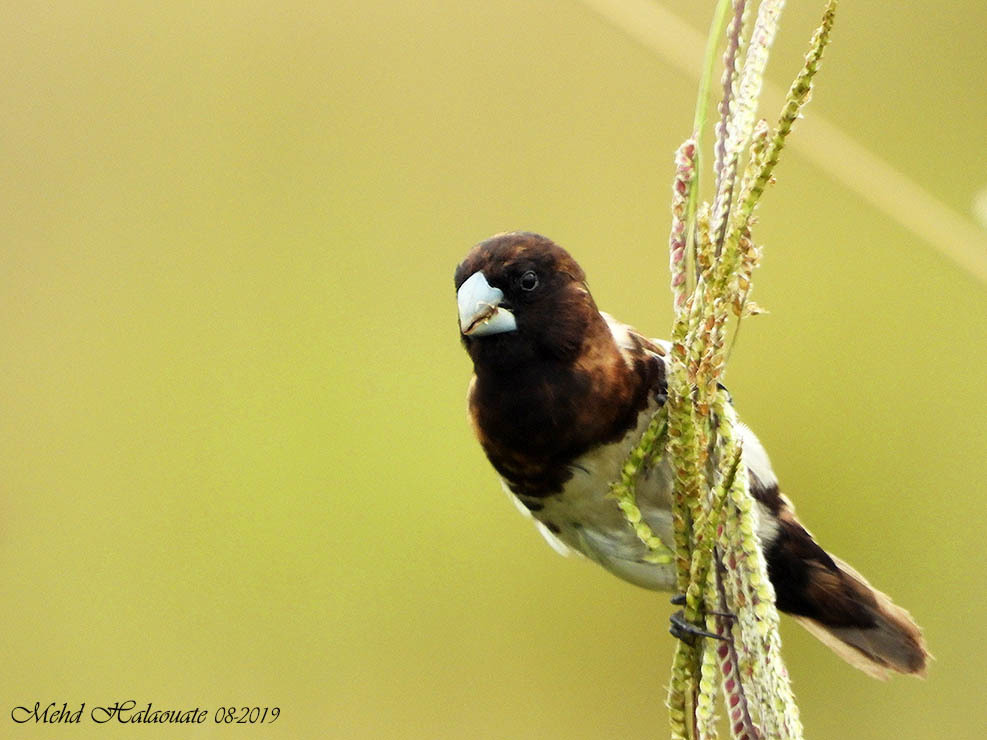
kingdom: Animalia
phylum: Chordata
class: Aves
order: Passeriformes
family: Estrildidae
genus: Lonchura
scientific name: Lonchura teerinki
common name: Black-breasted munia
